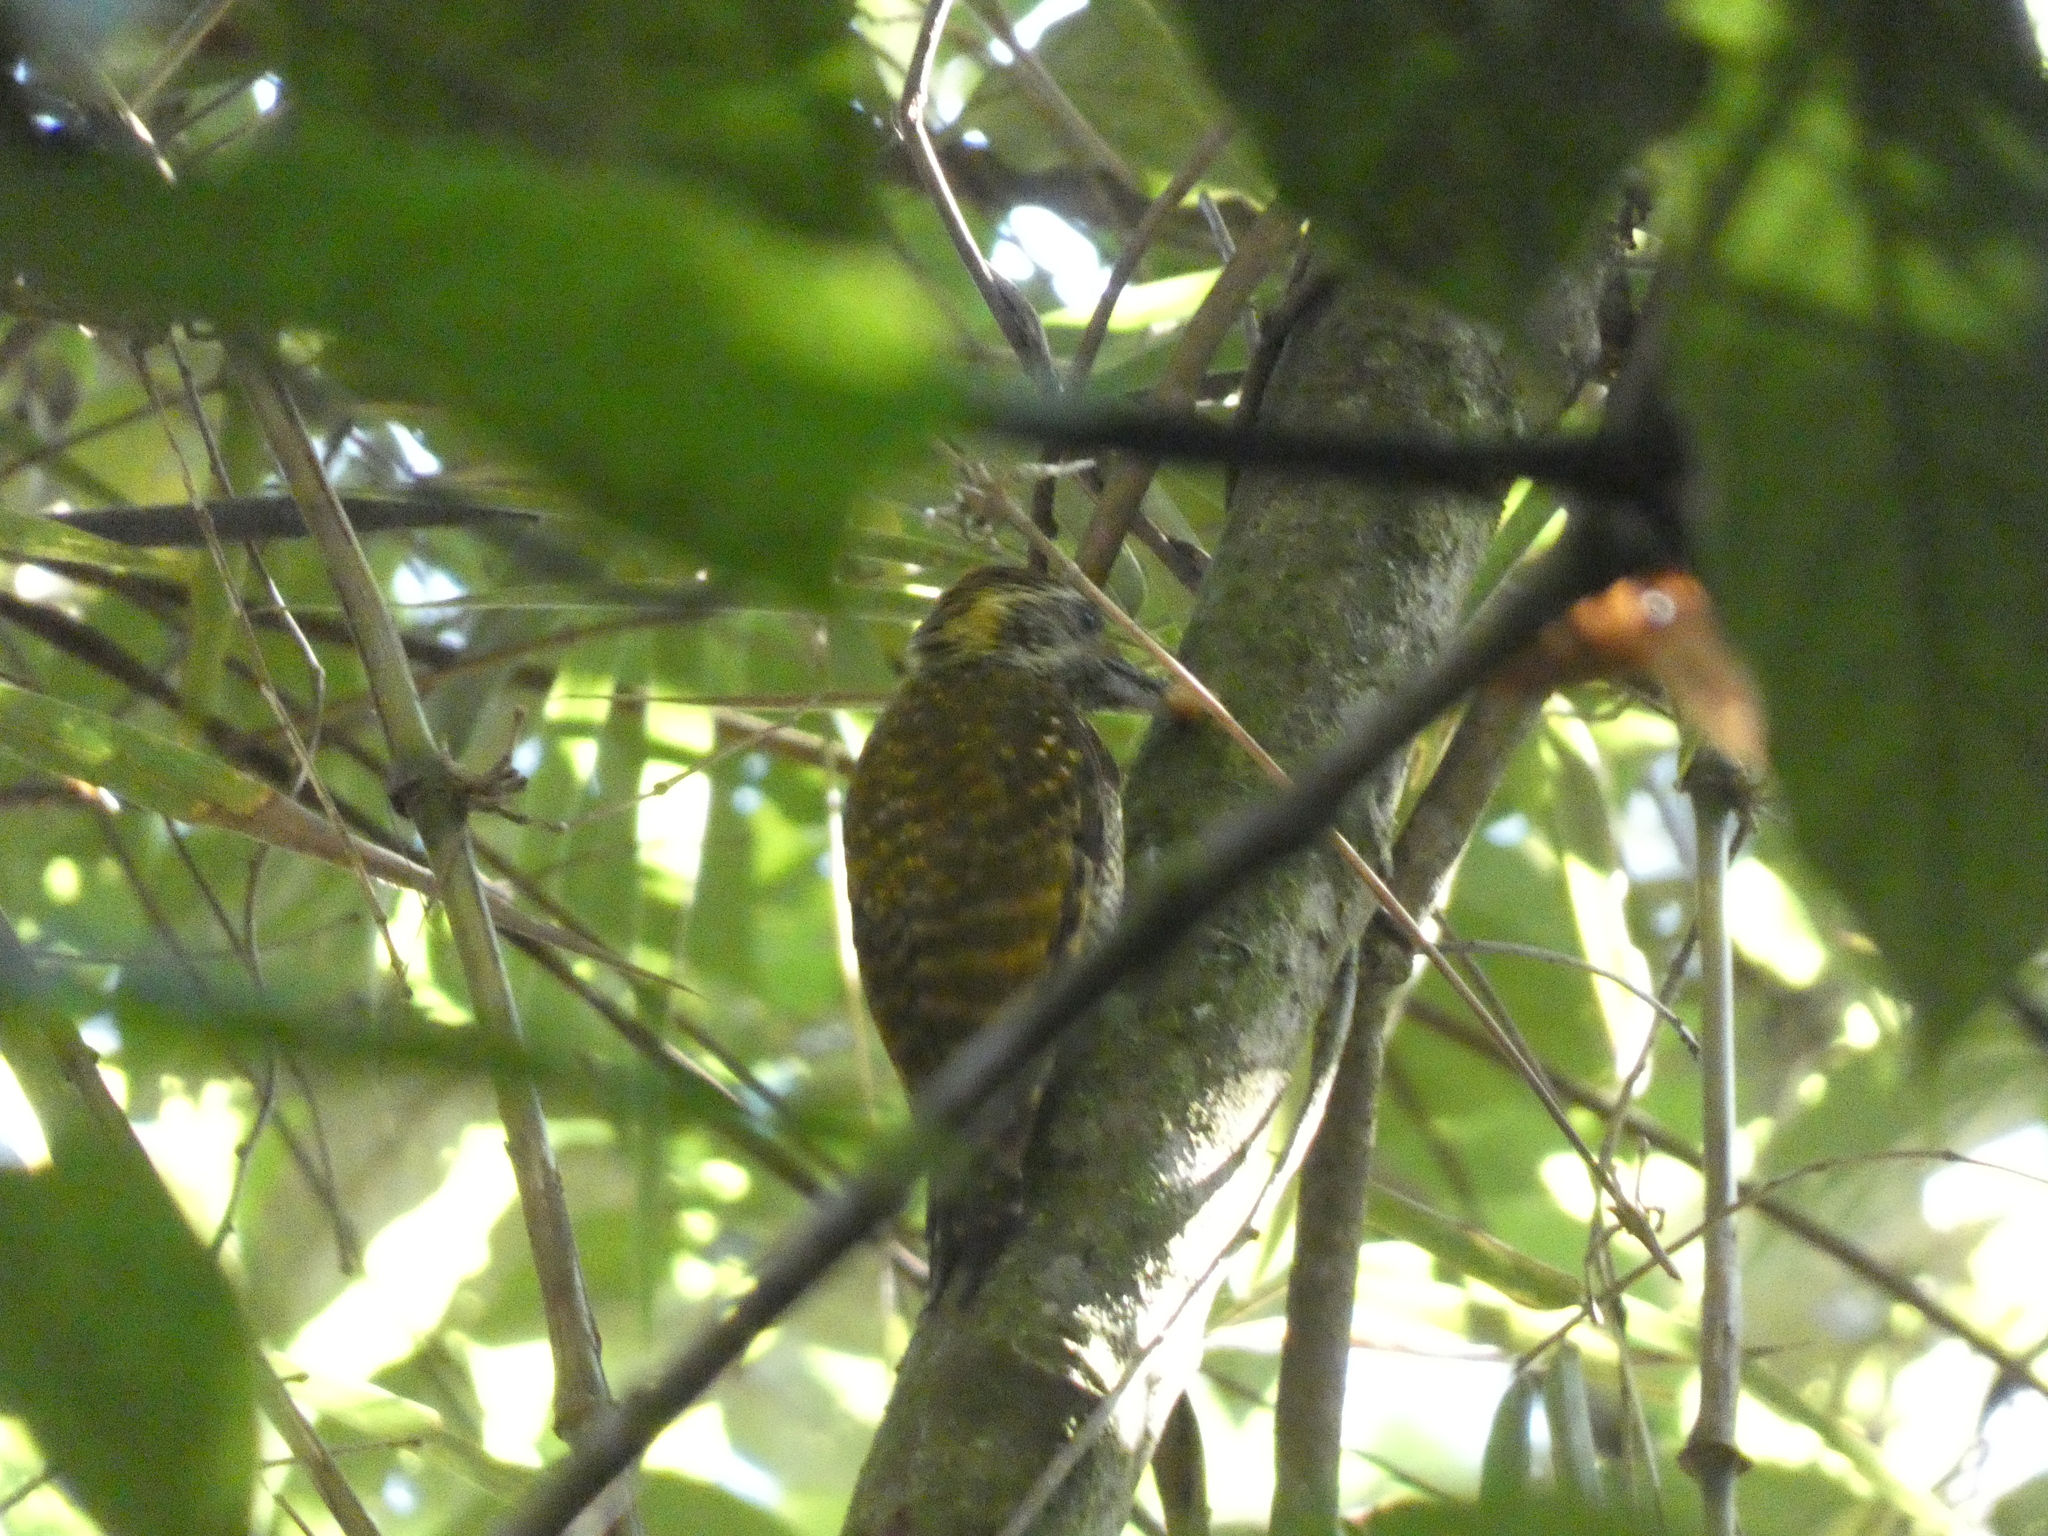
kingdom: Animalia
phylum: Chordata
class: Aves
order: Piciformes
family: Picidae
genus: Veniliornis
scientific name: Veniliornis spilogaster
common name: White-spotted woodpecker
